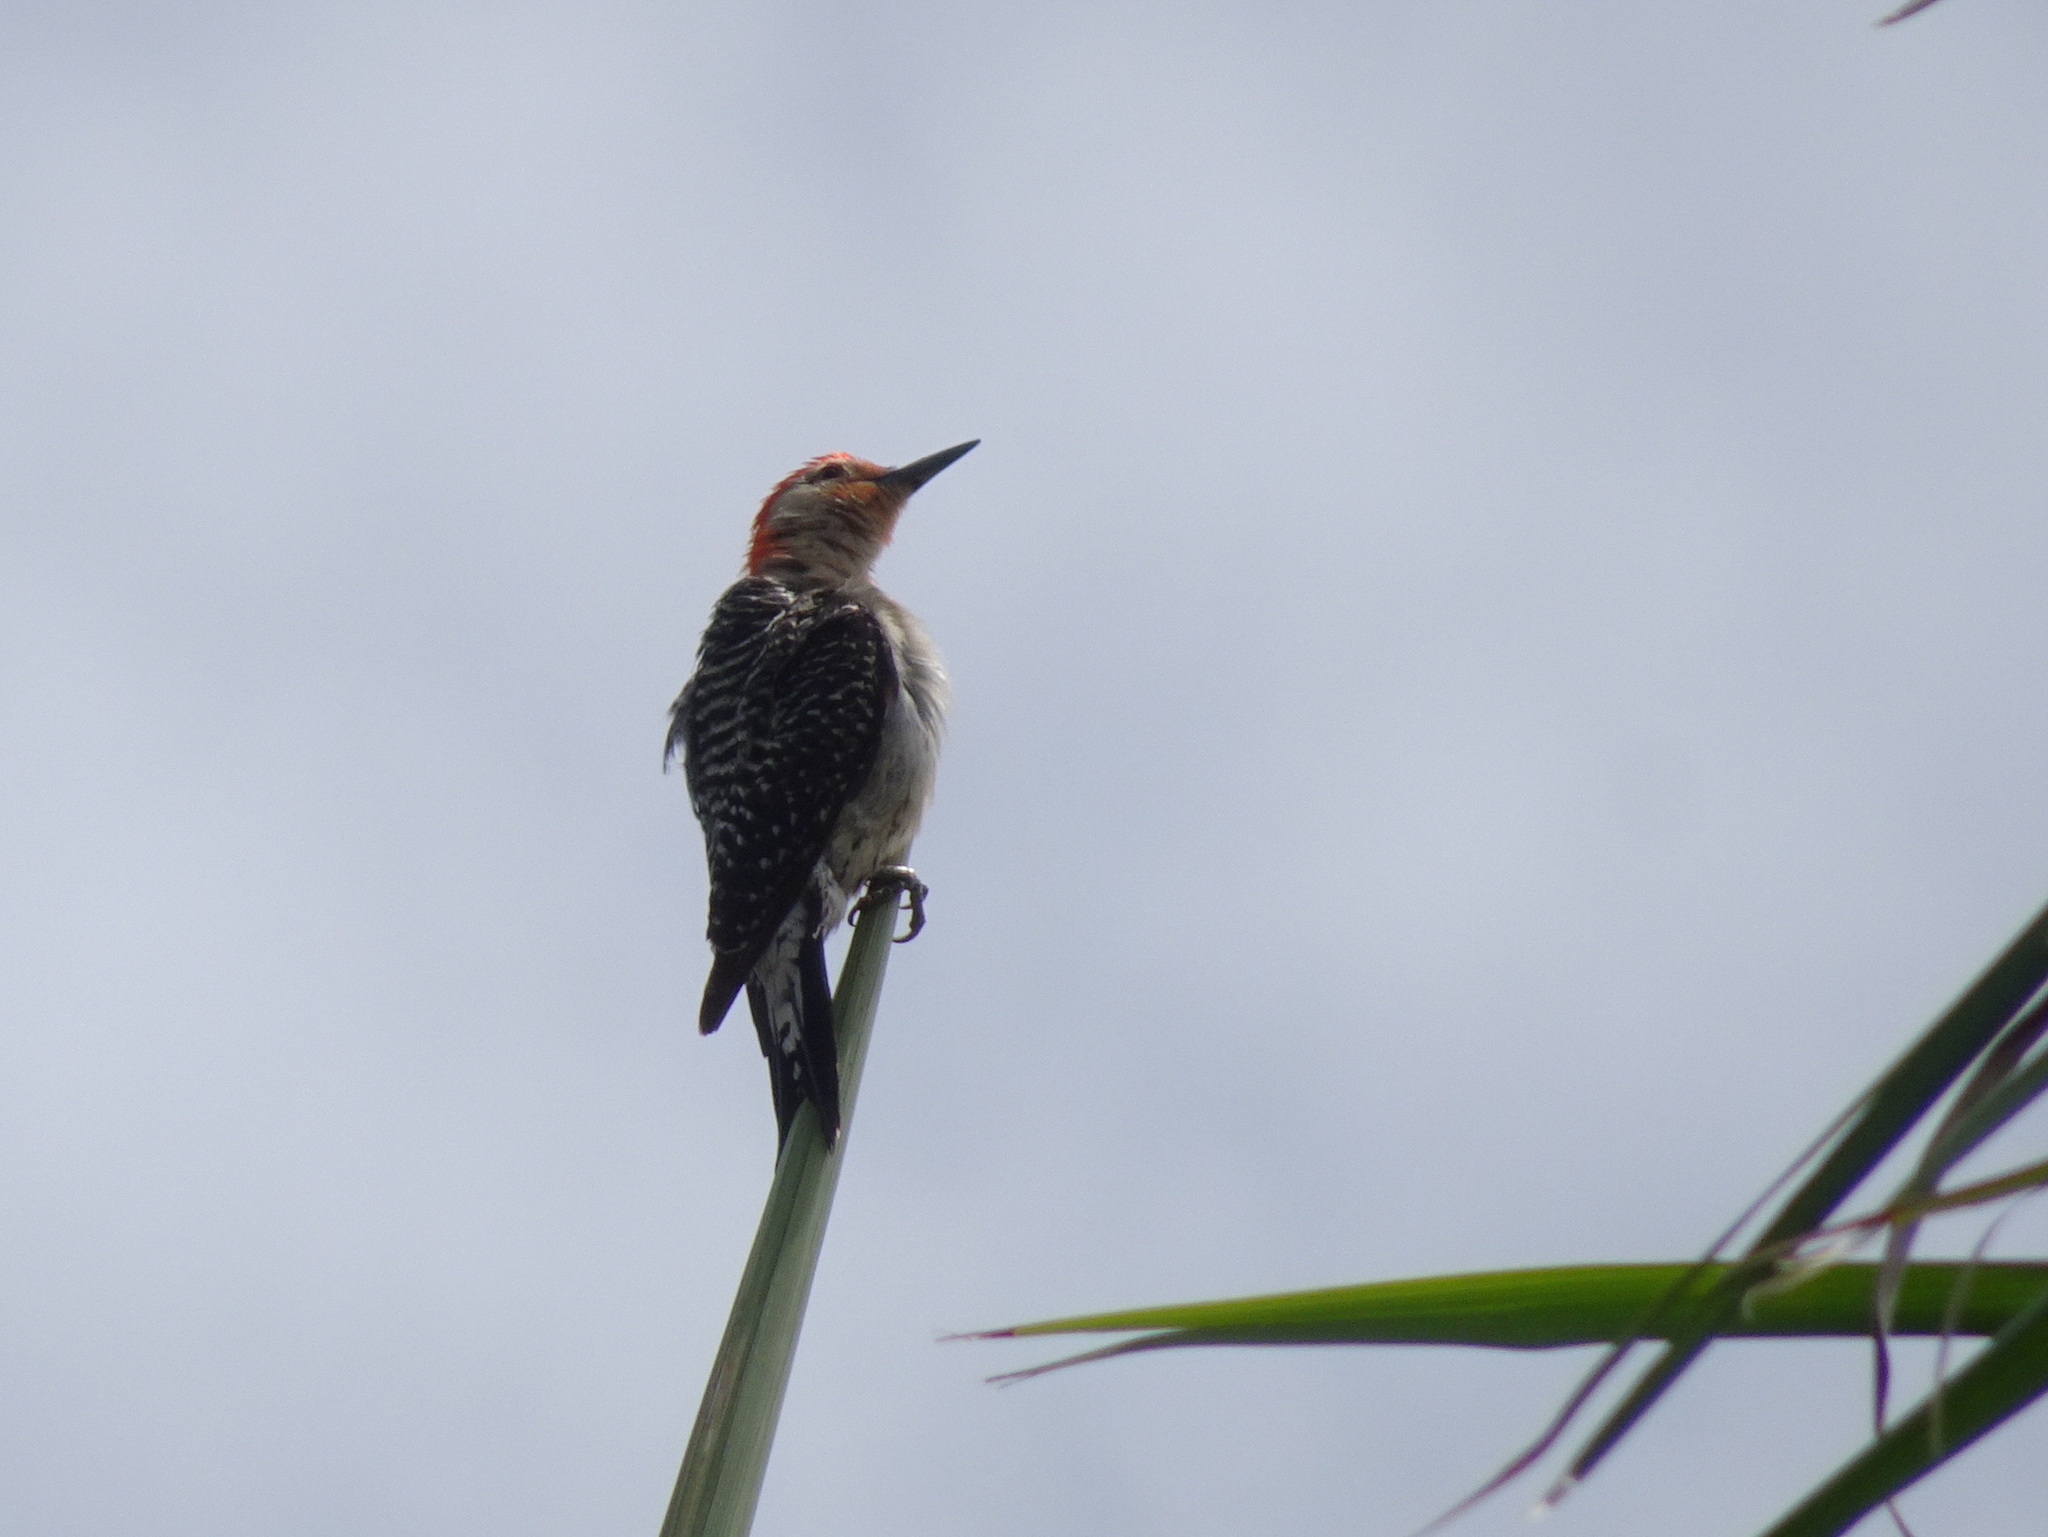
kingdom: Animalia
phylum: Chordata
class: Aves
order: Piciformes
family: Picidae
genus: Melanerpes
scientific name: Melanerpes carolinus
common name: Red-bellied woodpecker
